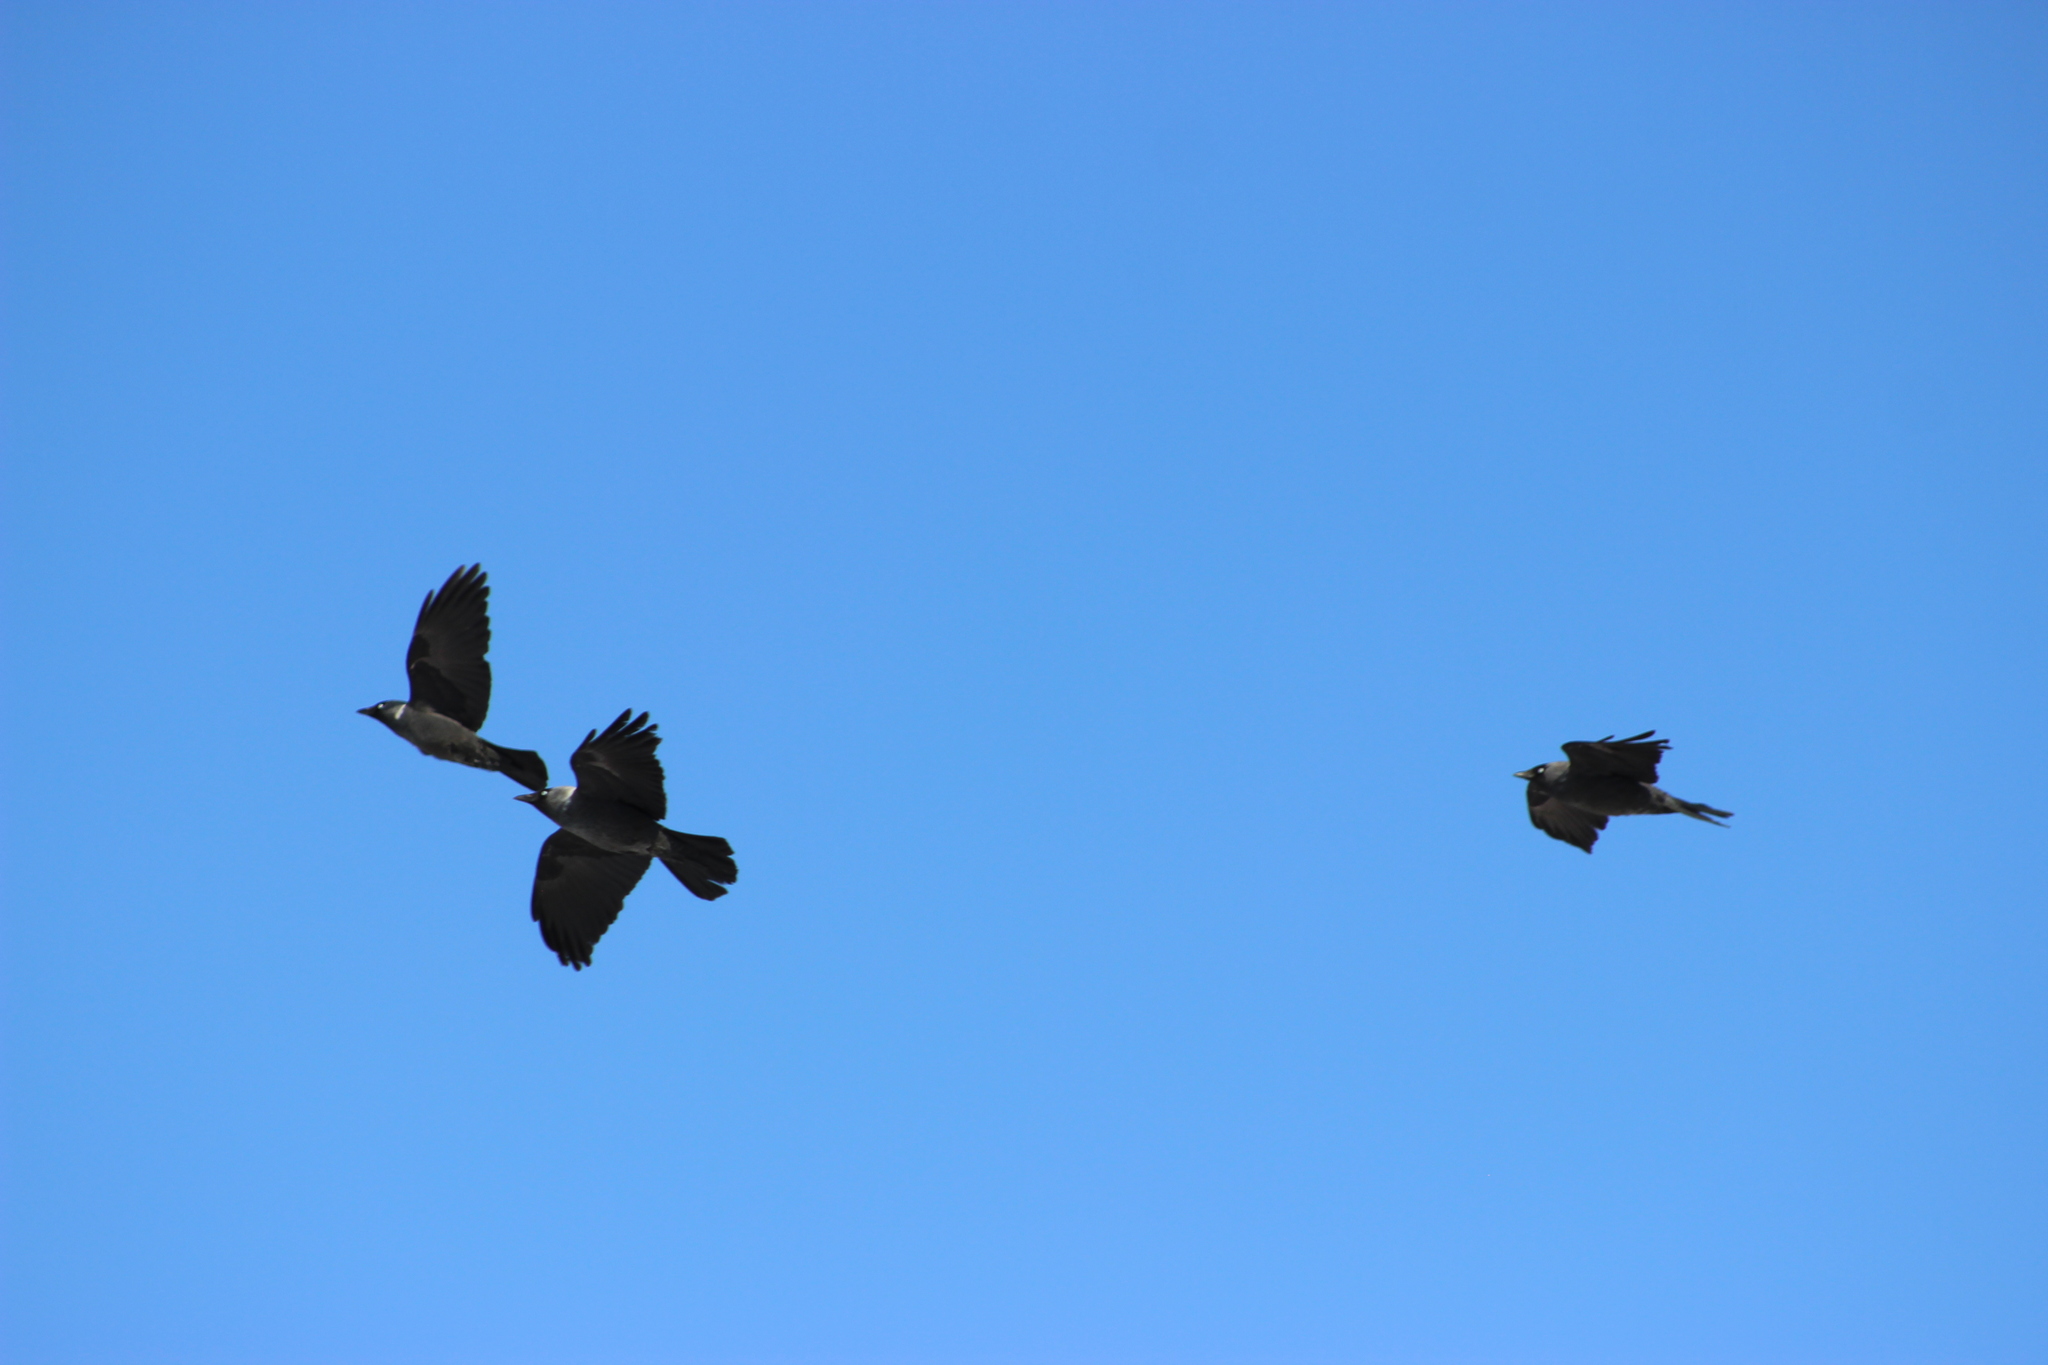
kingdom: Animalia
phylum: Chordata
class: Aves
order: Passeriformes
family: Corvidae
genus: Coloeus
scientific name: Coloeus monedula
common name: Western jackdaw
